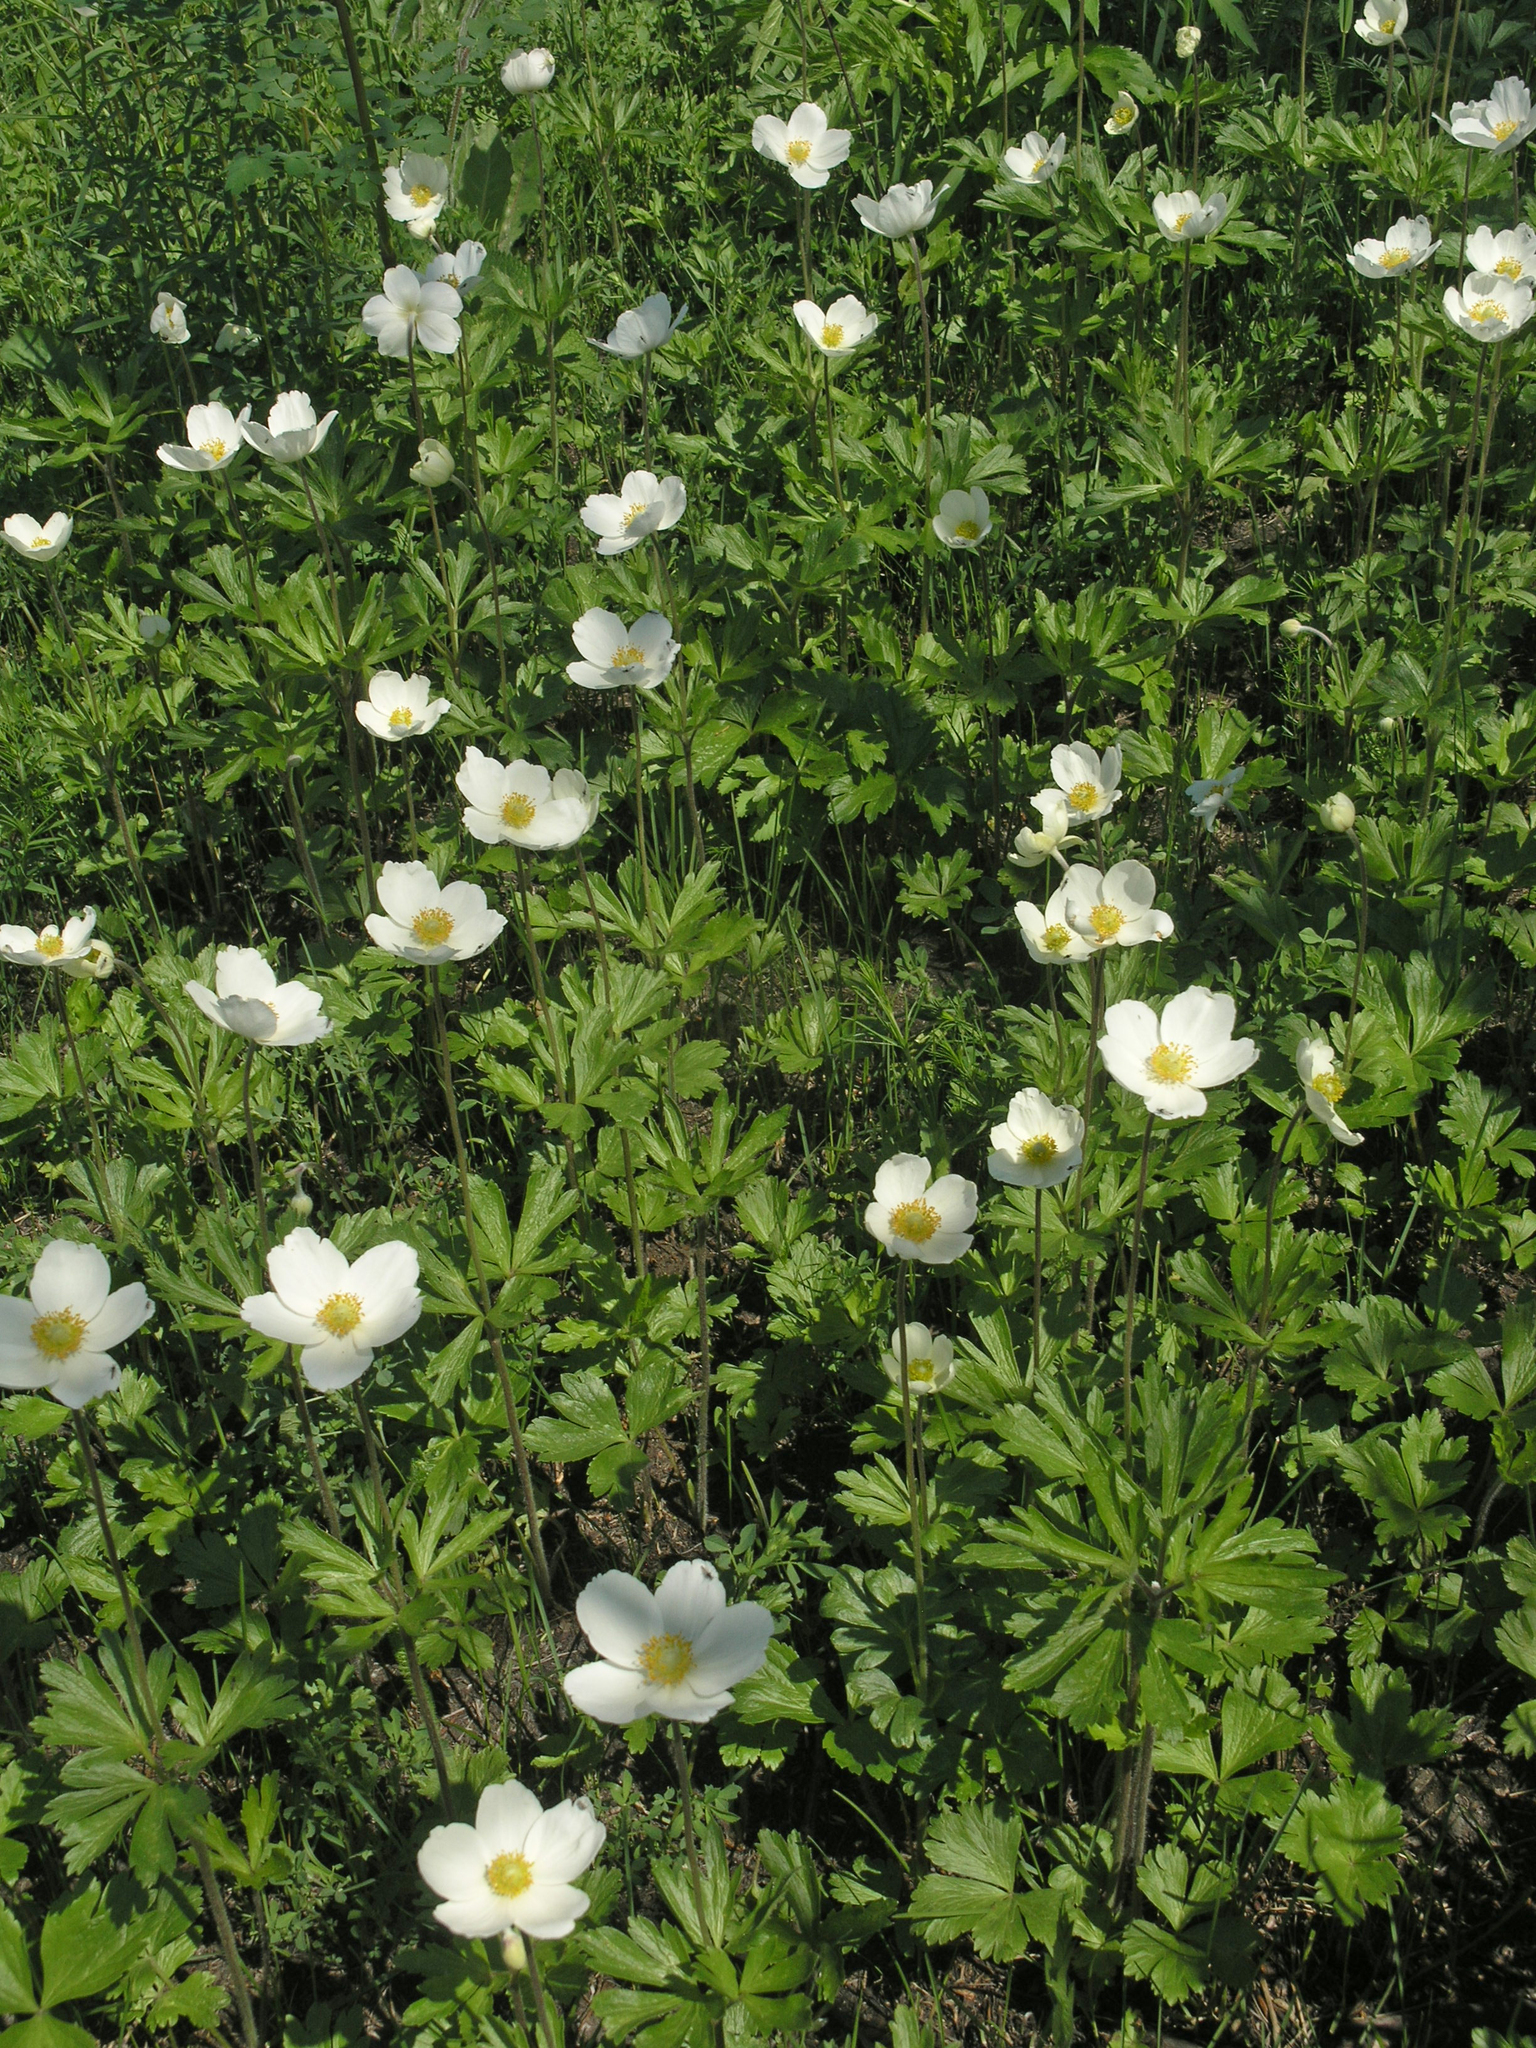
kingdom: Plantae
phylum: Tracheophyta
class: Magnoliopsida
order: Ranunculales
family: Ranunculaceae
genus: Anemone
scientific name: Anemone sylvestris
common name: Snowdrop anemone
